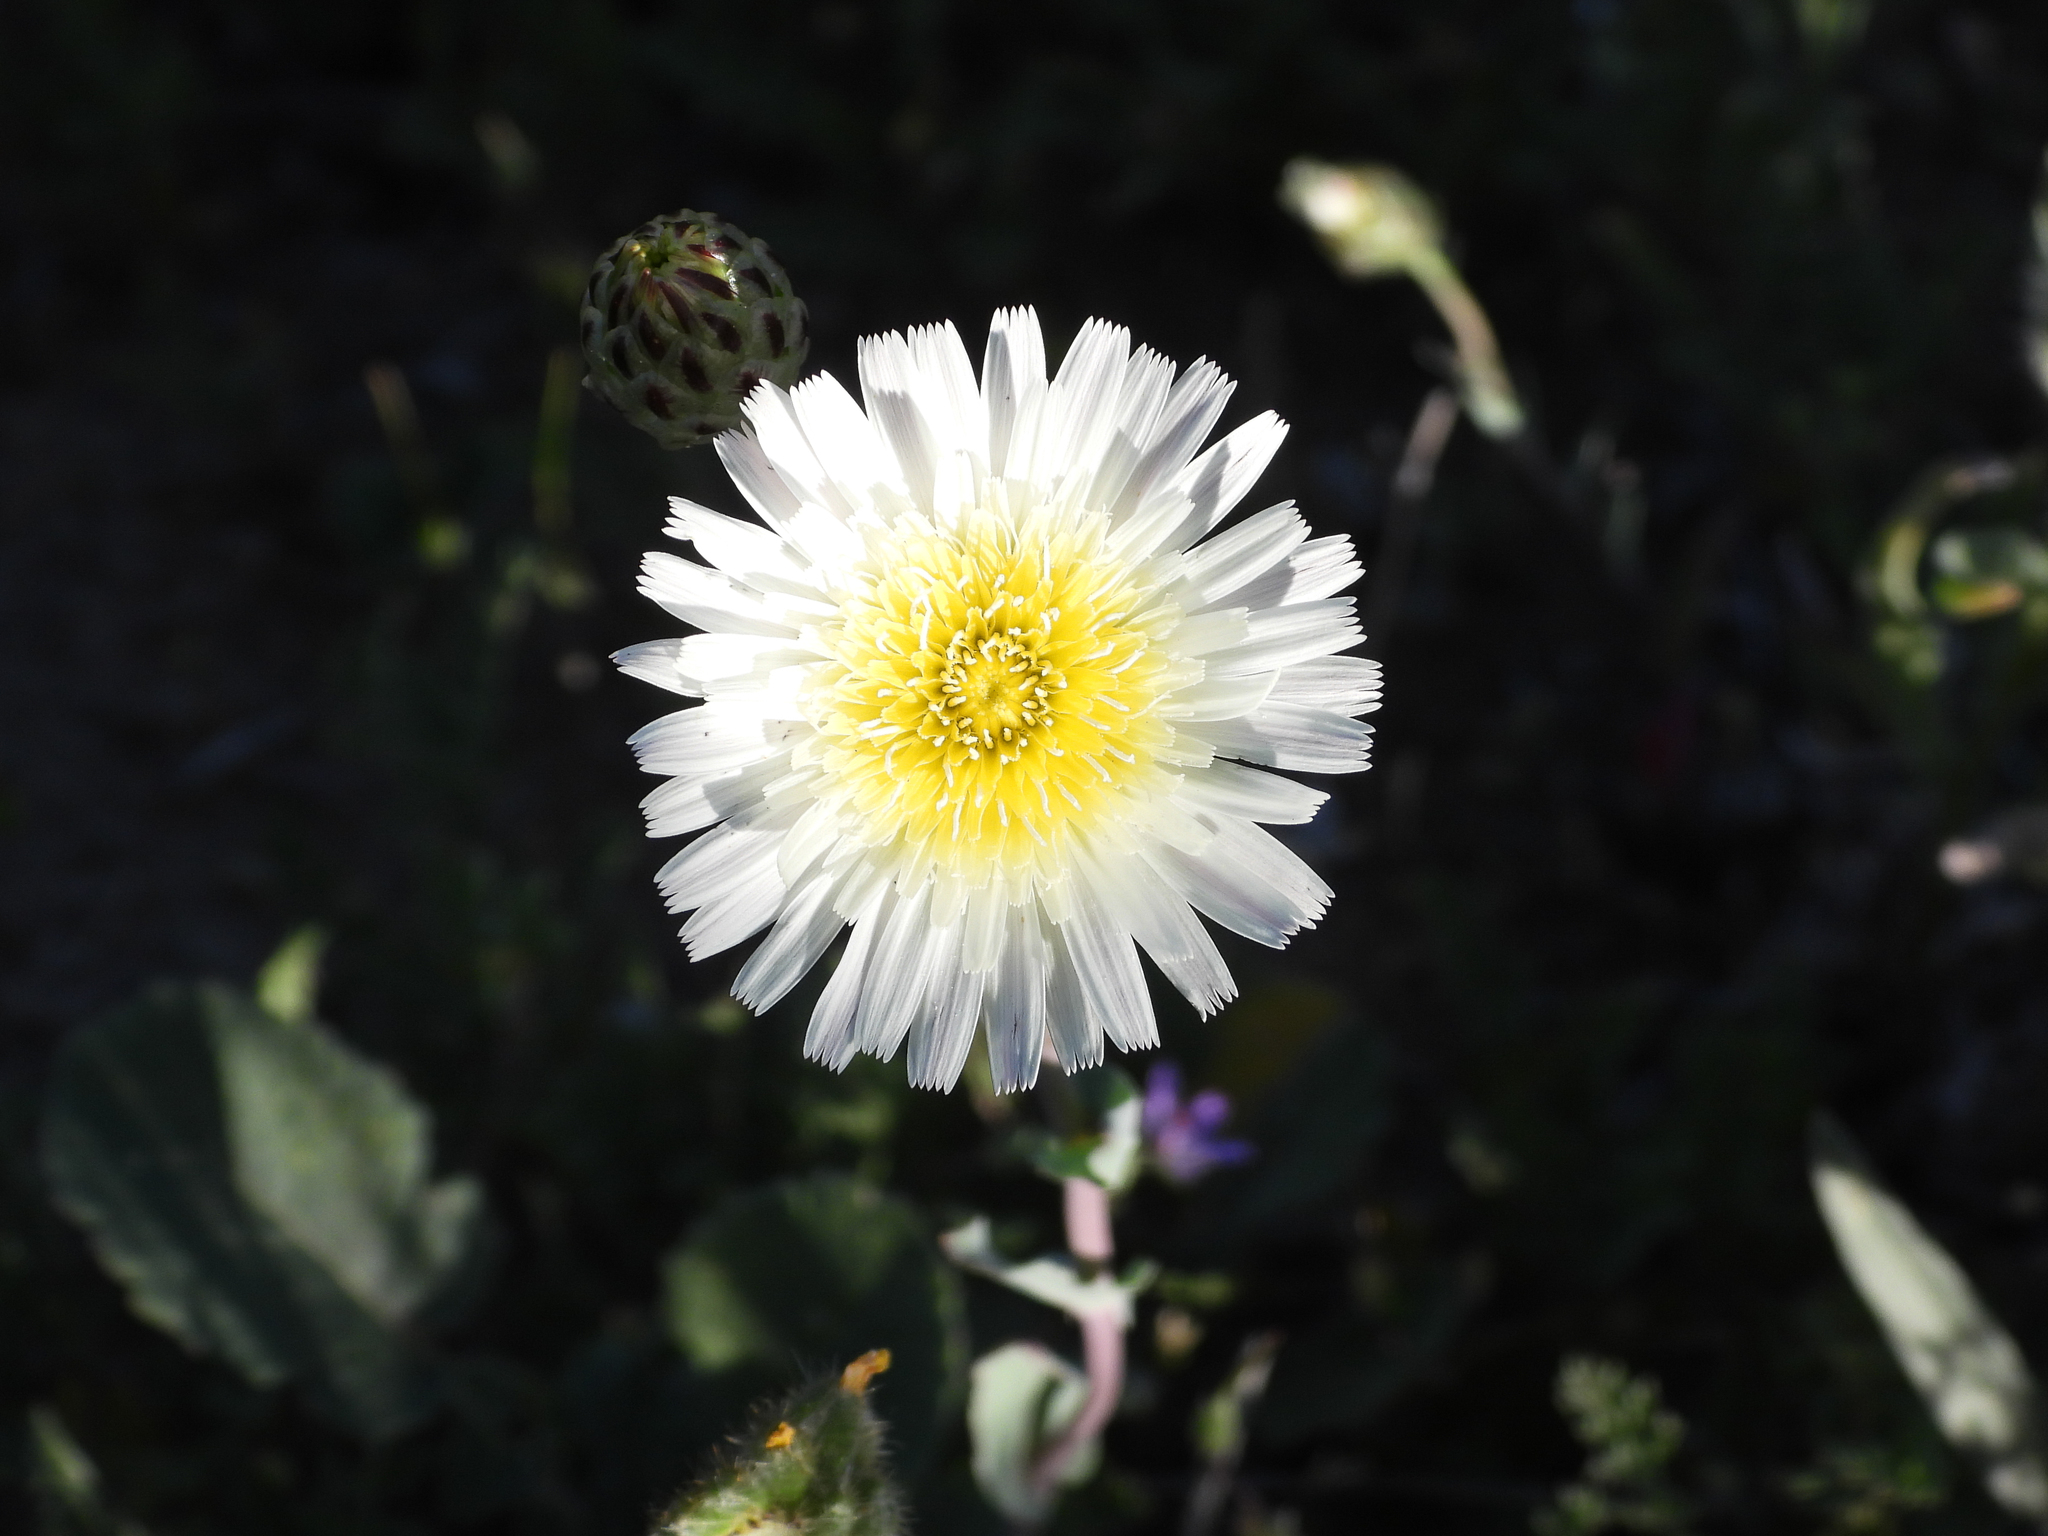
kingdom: Plantae
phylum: Tracheophyta
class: Magnoliopsida
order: Asterales
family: Asteraceae
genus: Malacothrix
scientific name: Malacothrix coulteri
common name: Snake's-head
